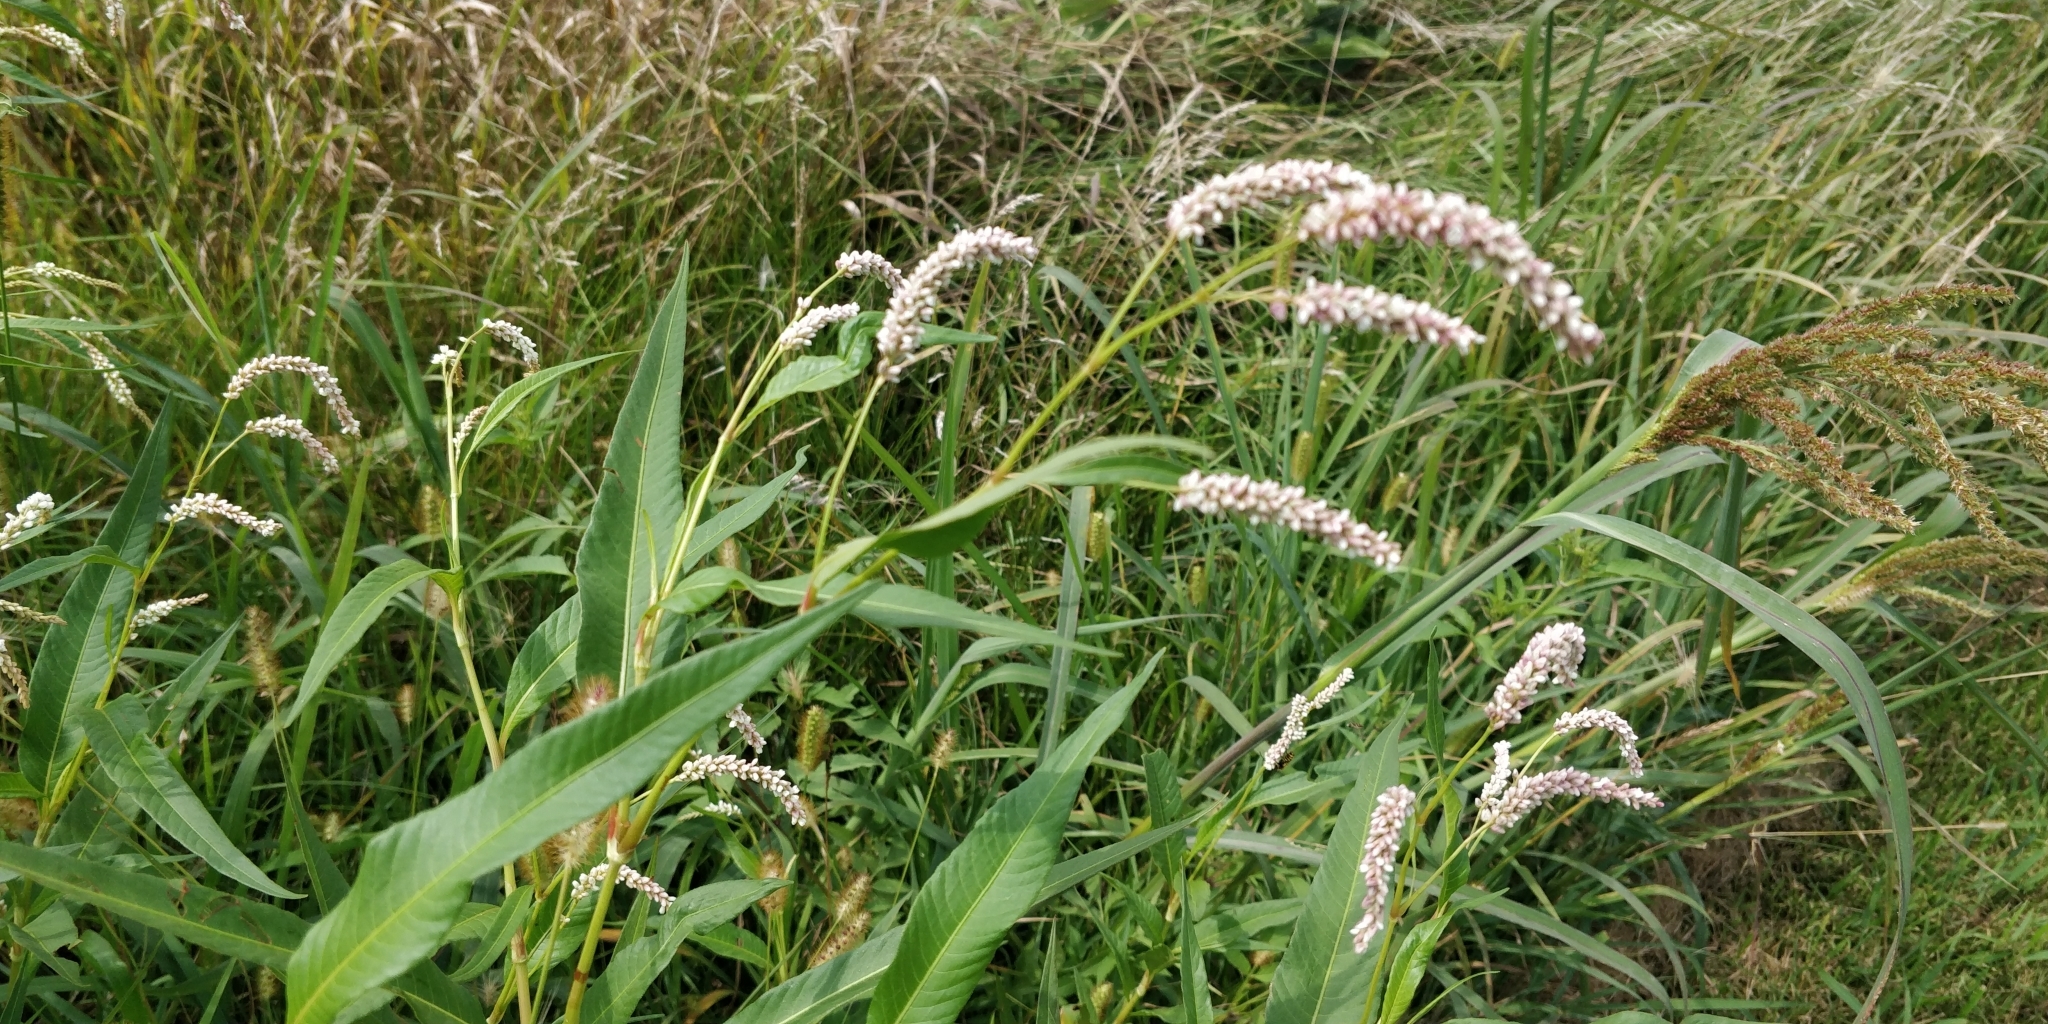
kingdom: Plantae
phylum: Tracheophyta
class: Magnoliopsida
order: Caryophyllales
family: Polygonaceae
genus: Persicaria
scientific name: Persicaria lapathifolia
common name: Curlytop knotweed
